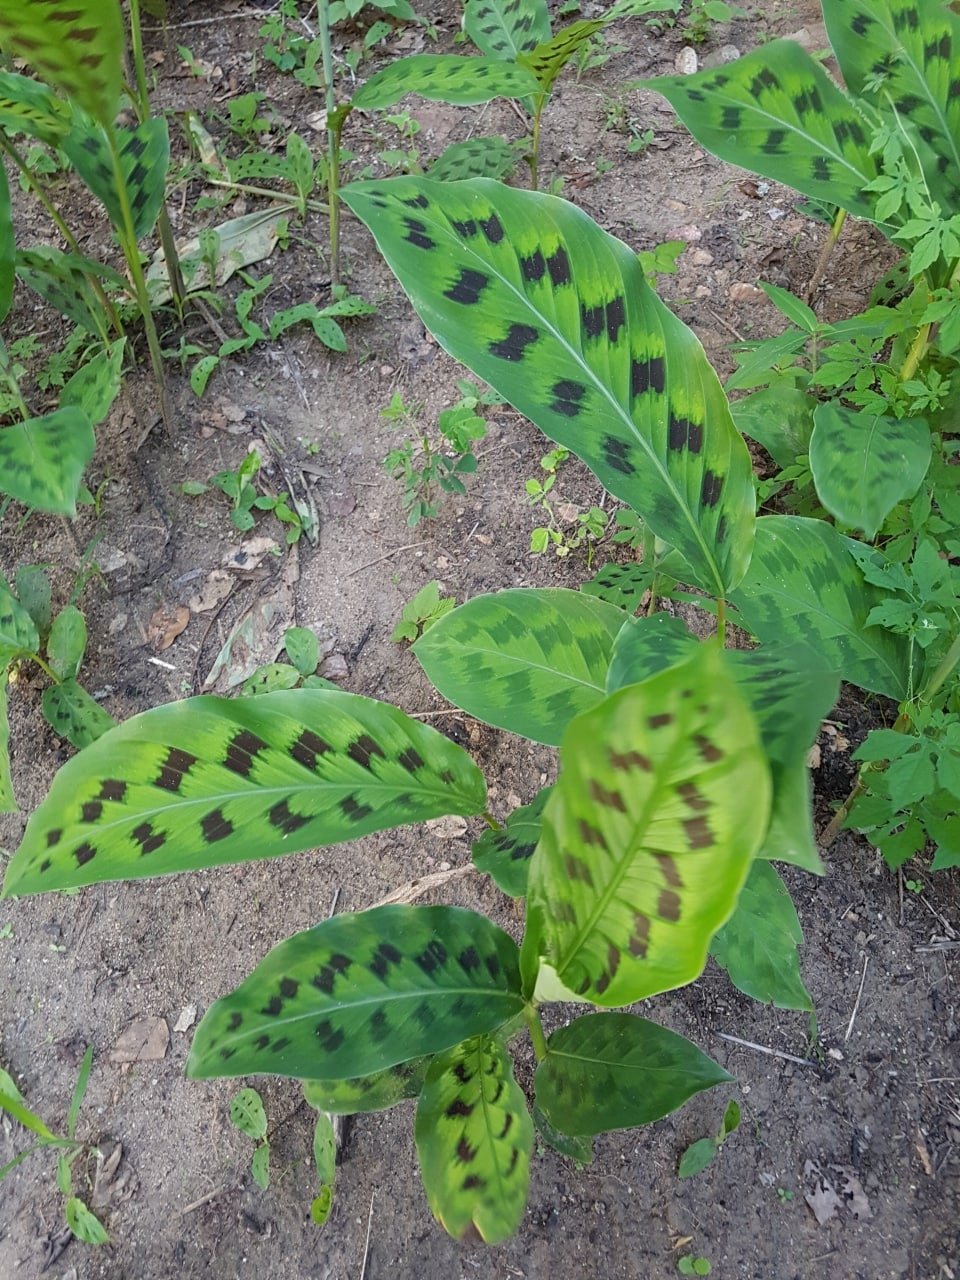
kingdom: Plantae
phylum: Tracheophyta
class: Liliopsida
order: Zingiberales
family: Marantaceae
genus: Goeppertia
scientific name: Goeppertia villosa
